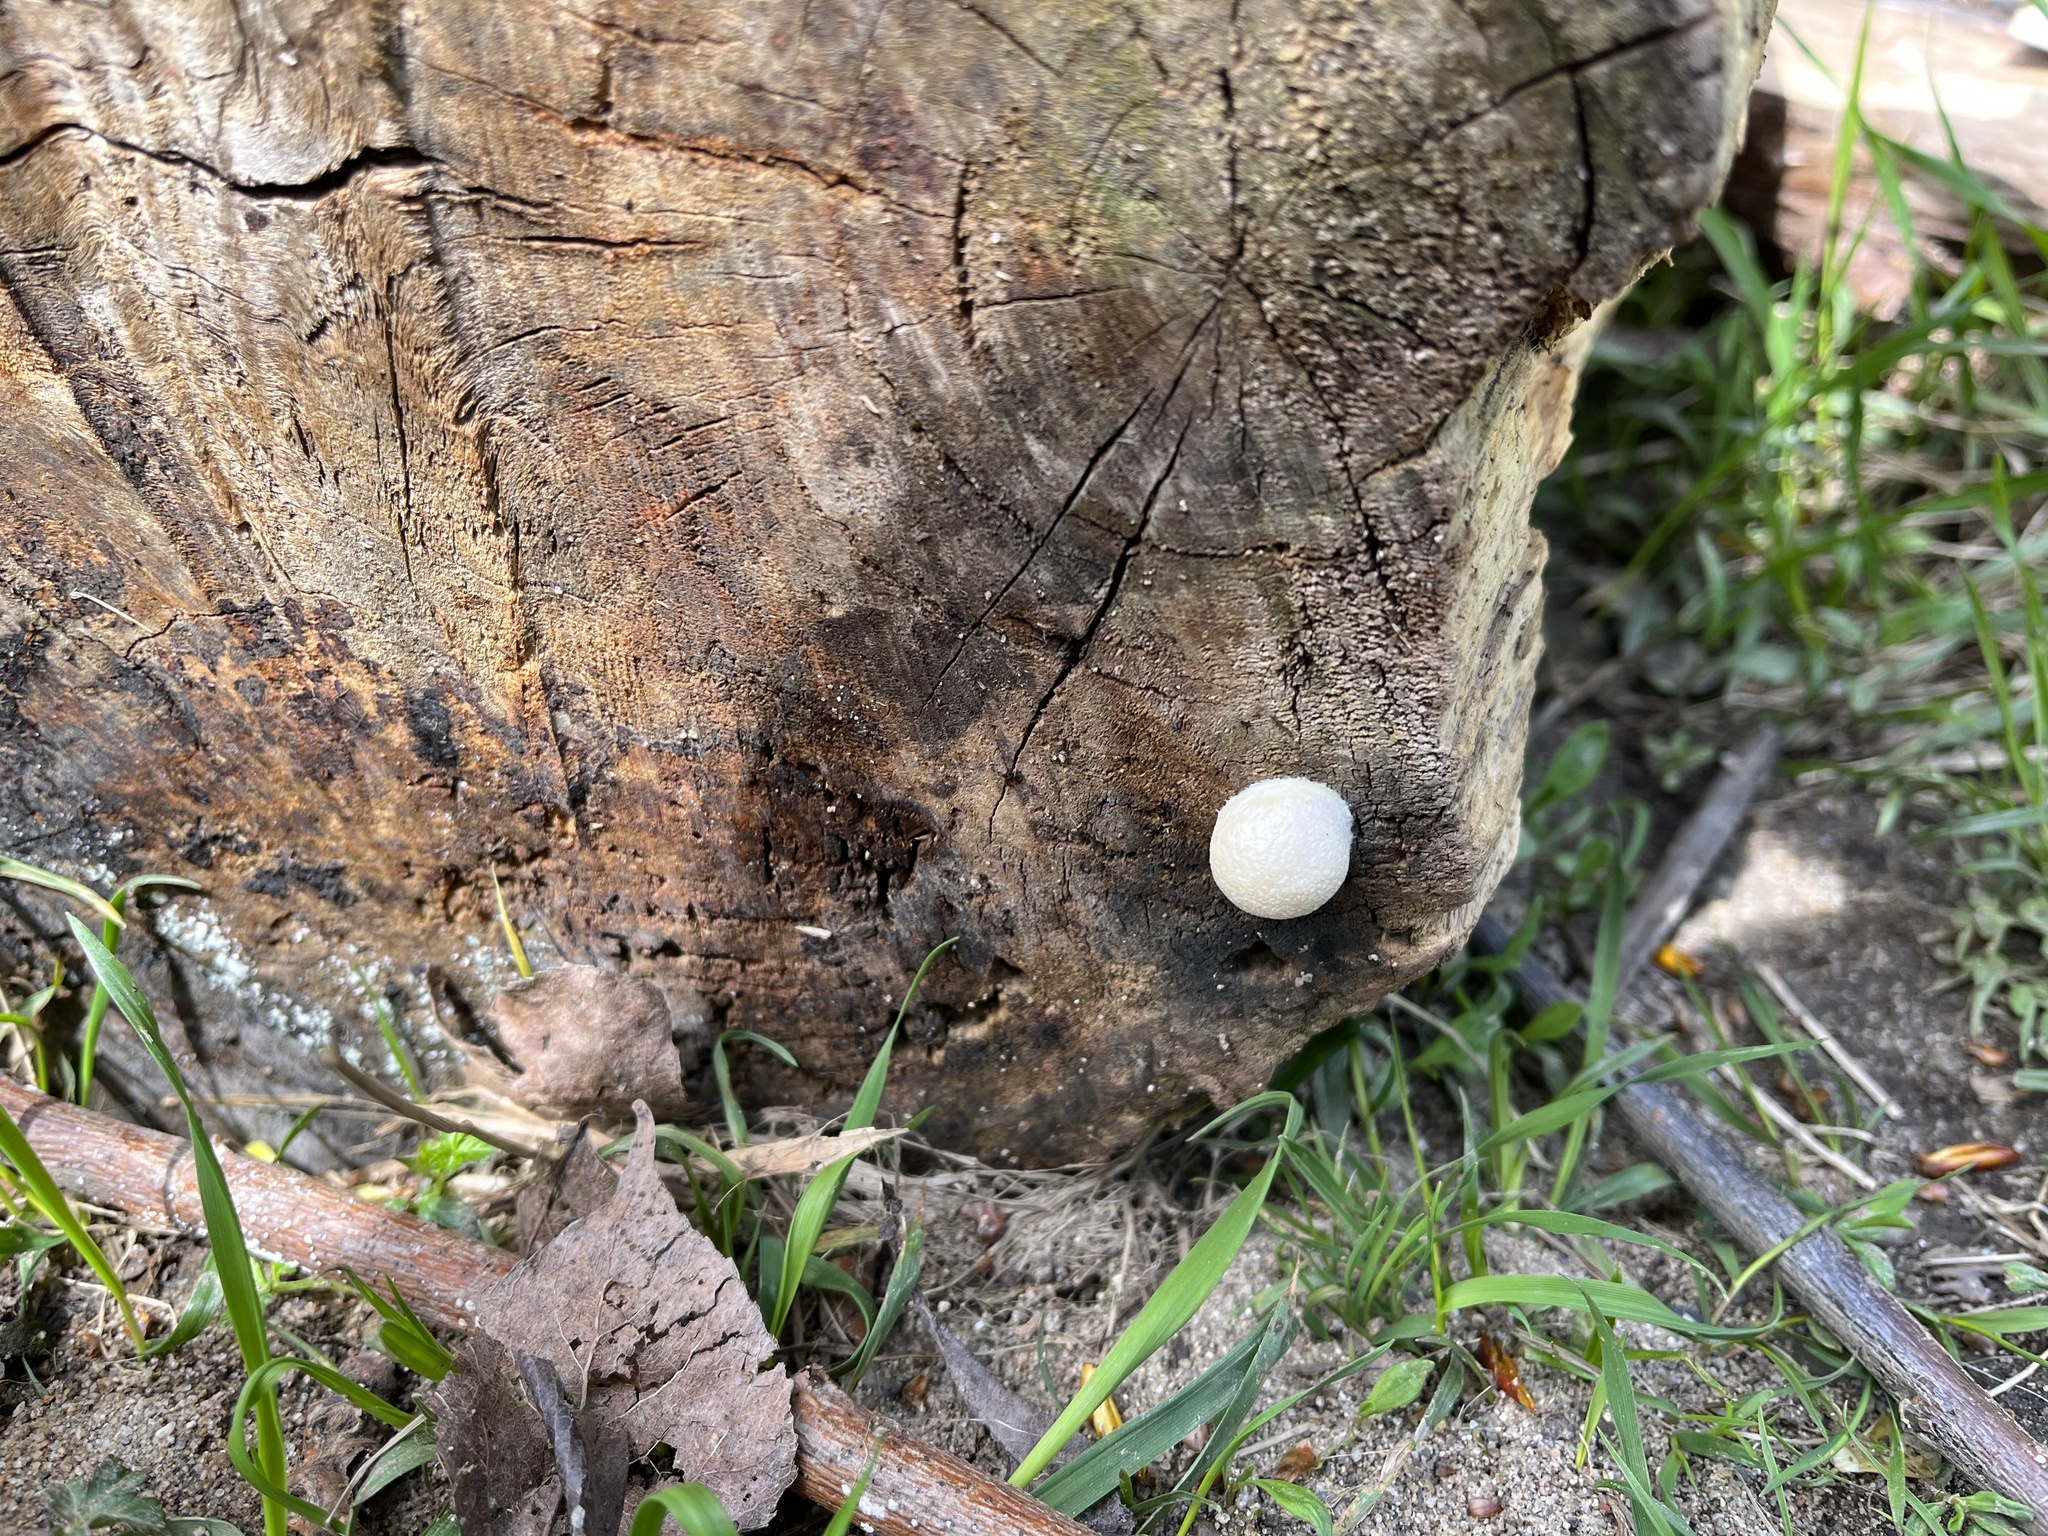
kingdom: Protozoa
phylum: Mycetozoa
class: Myxomycetes
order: Cribrariales
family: Tubiferaceae
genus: Reticularia
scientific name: Reticularia lycoperdon
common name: False puffball
